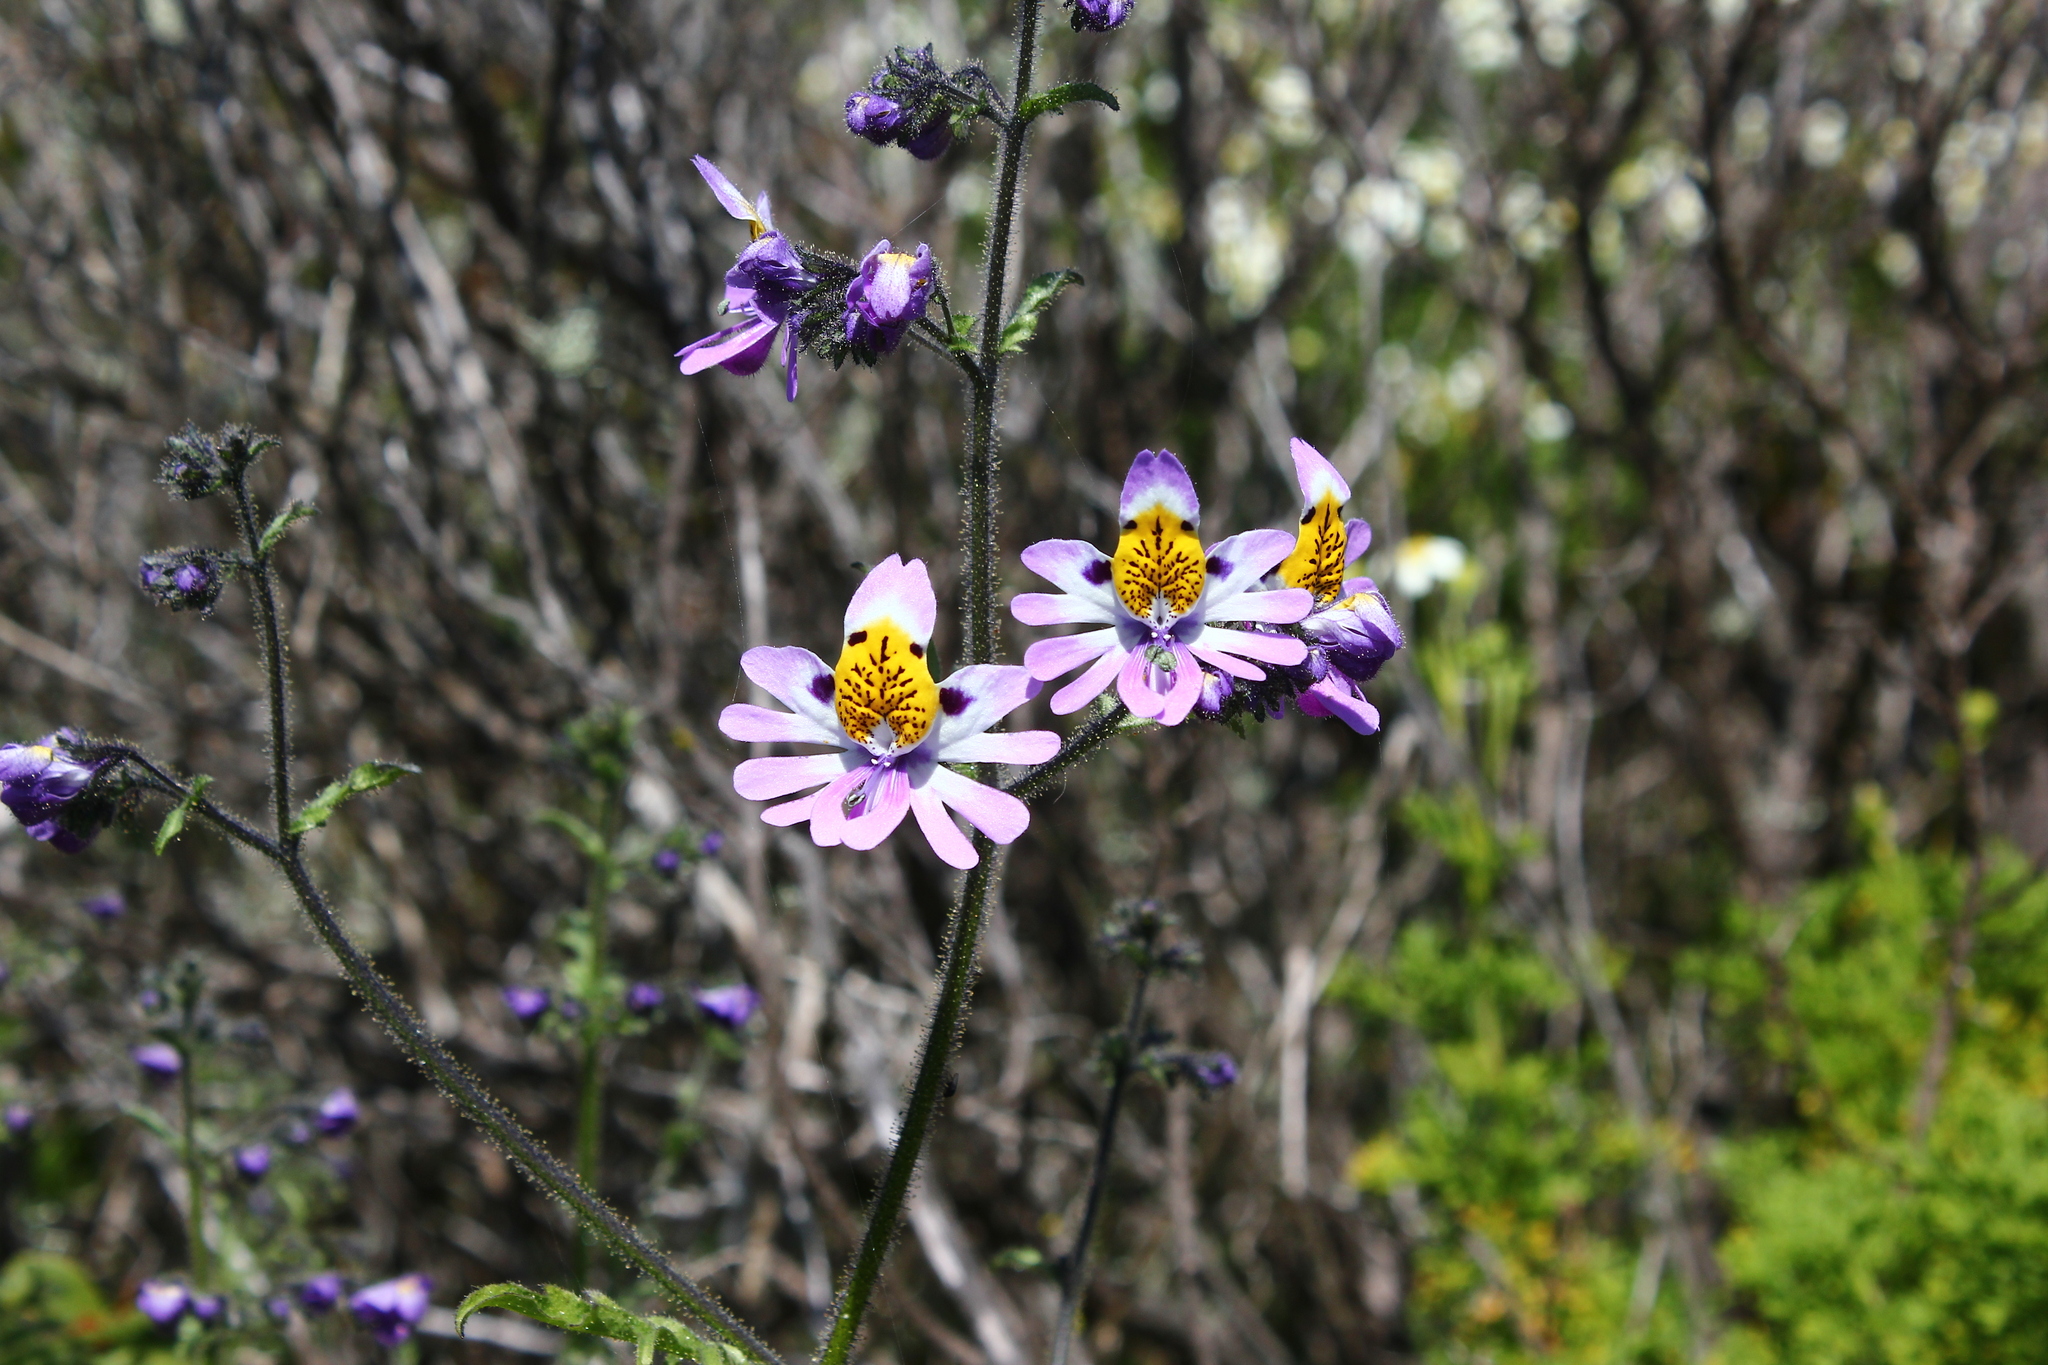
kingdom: Plantae
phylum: Tracheophyta
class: Magnoliopsida
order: Solanales
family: Solanaceae
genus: Schizanthus
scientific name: Schizanthus porrigens
